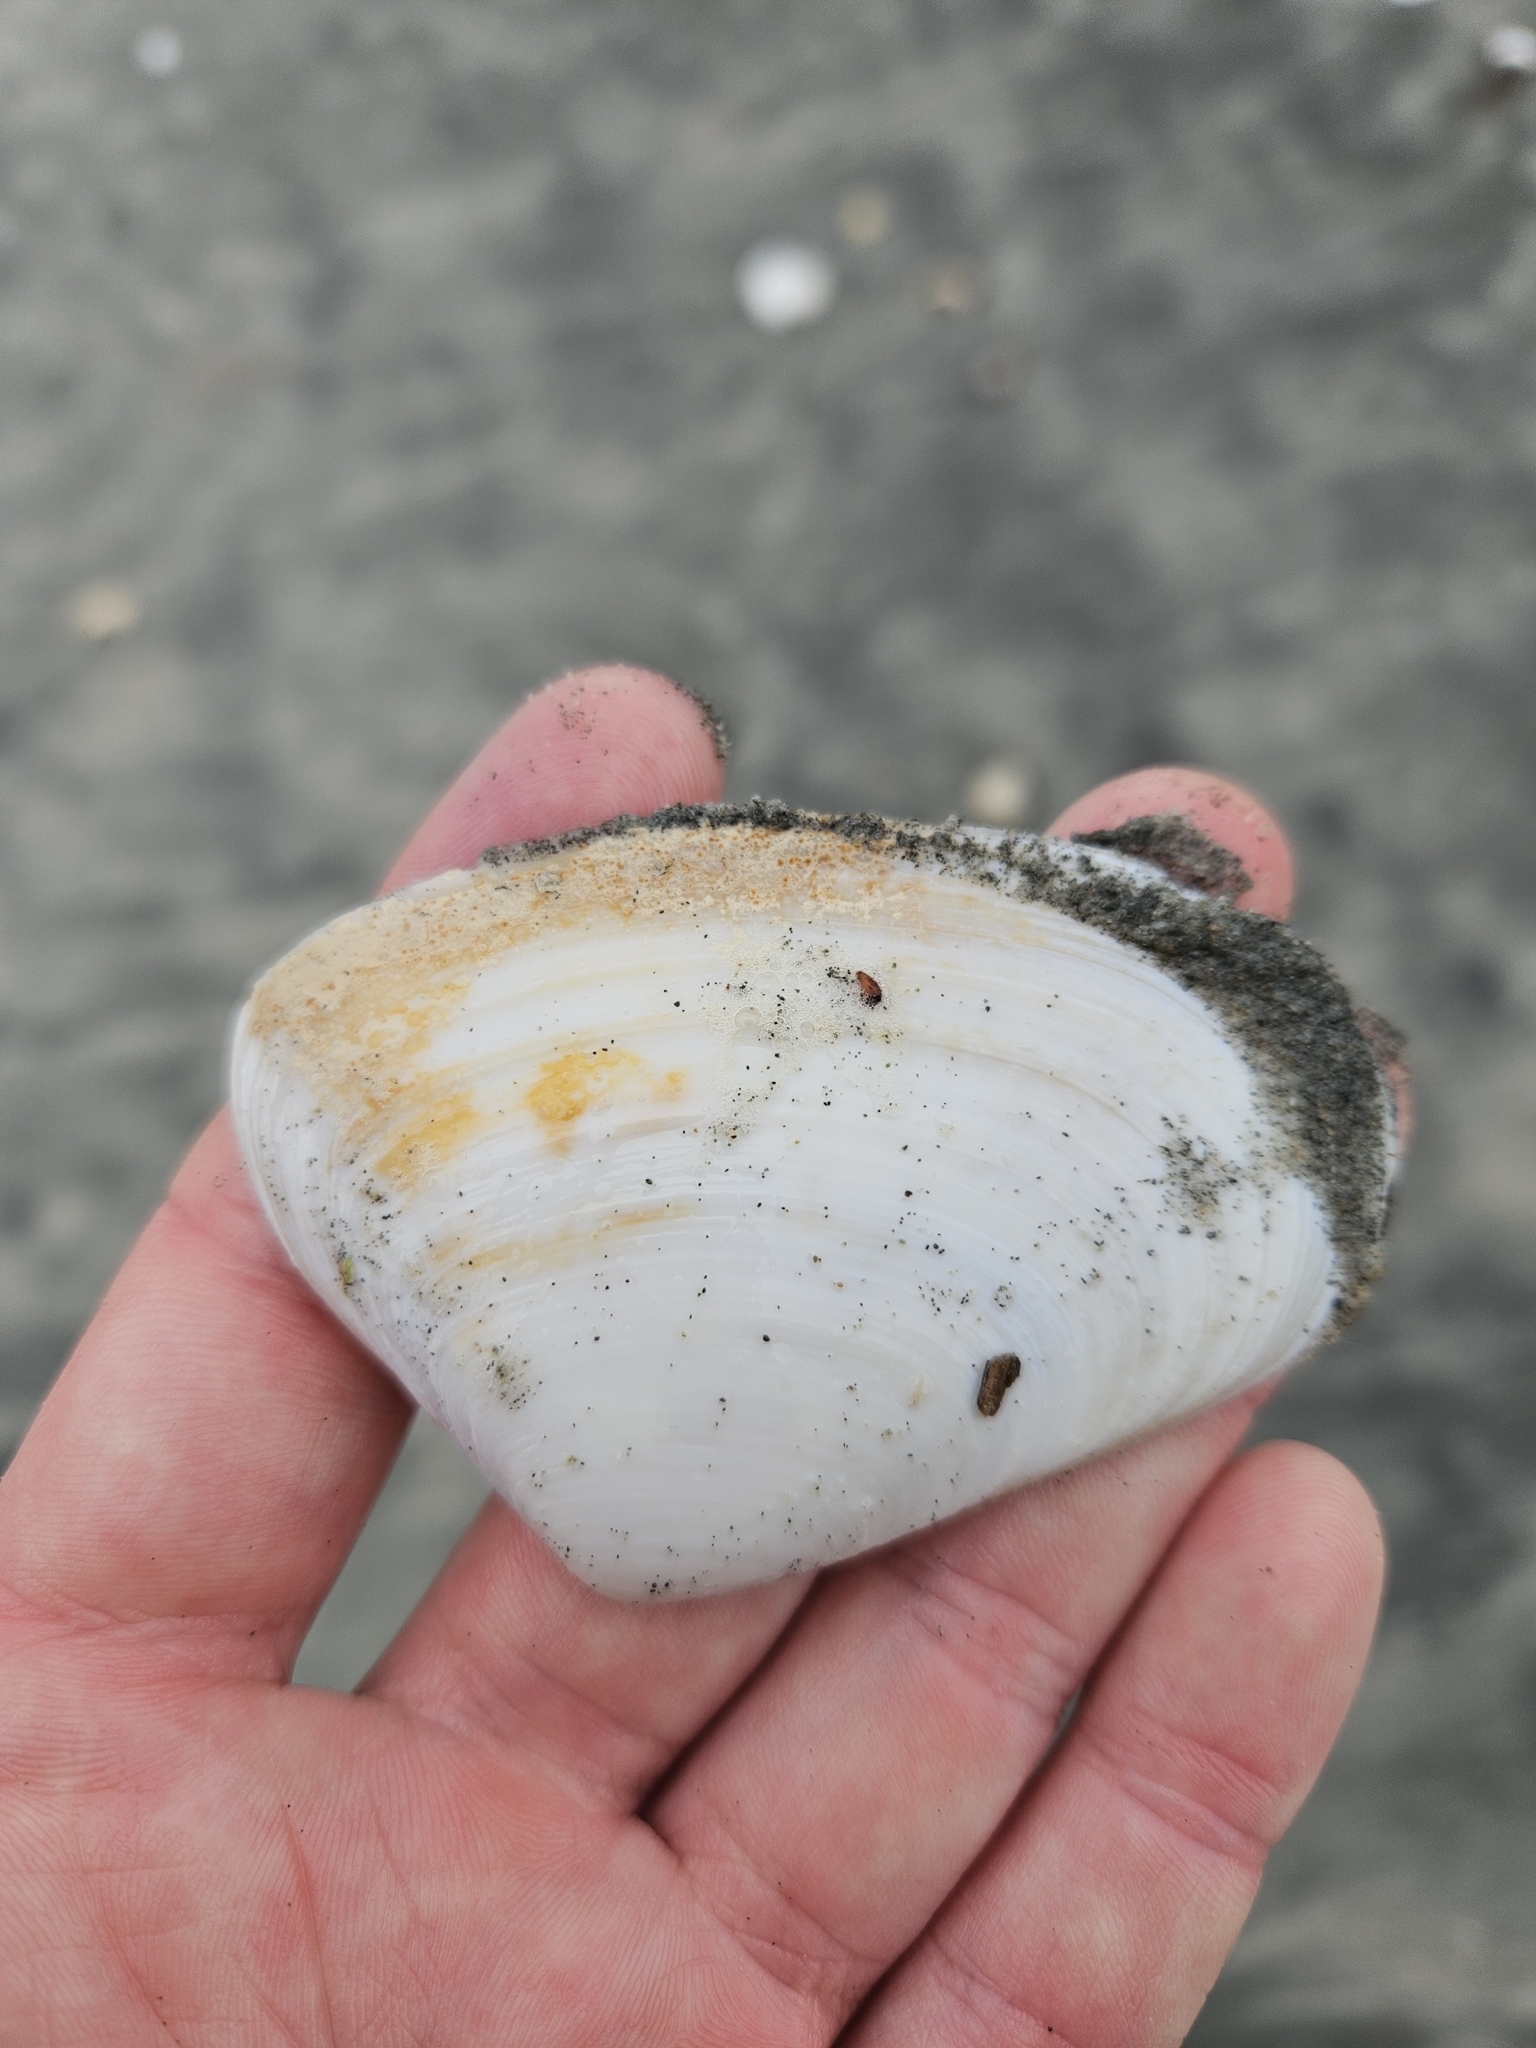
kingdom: Animalia
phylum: Mollusca
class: Bivalvia
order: Venerida
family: Mesodesmatidae
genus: Paphies
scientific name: Paphies donacina
